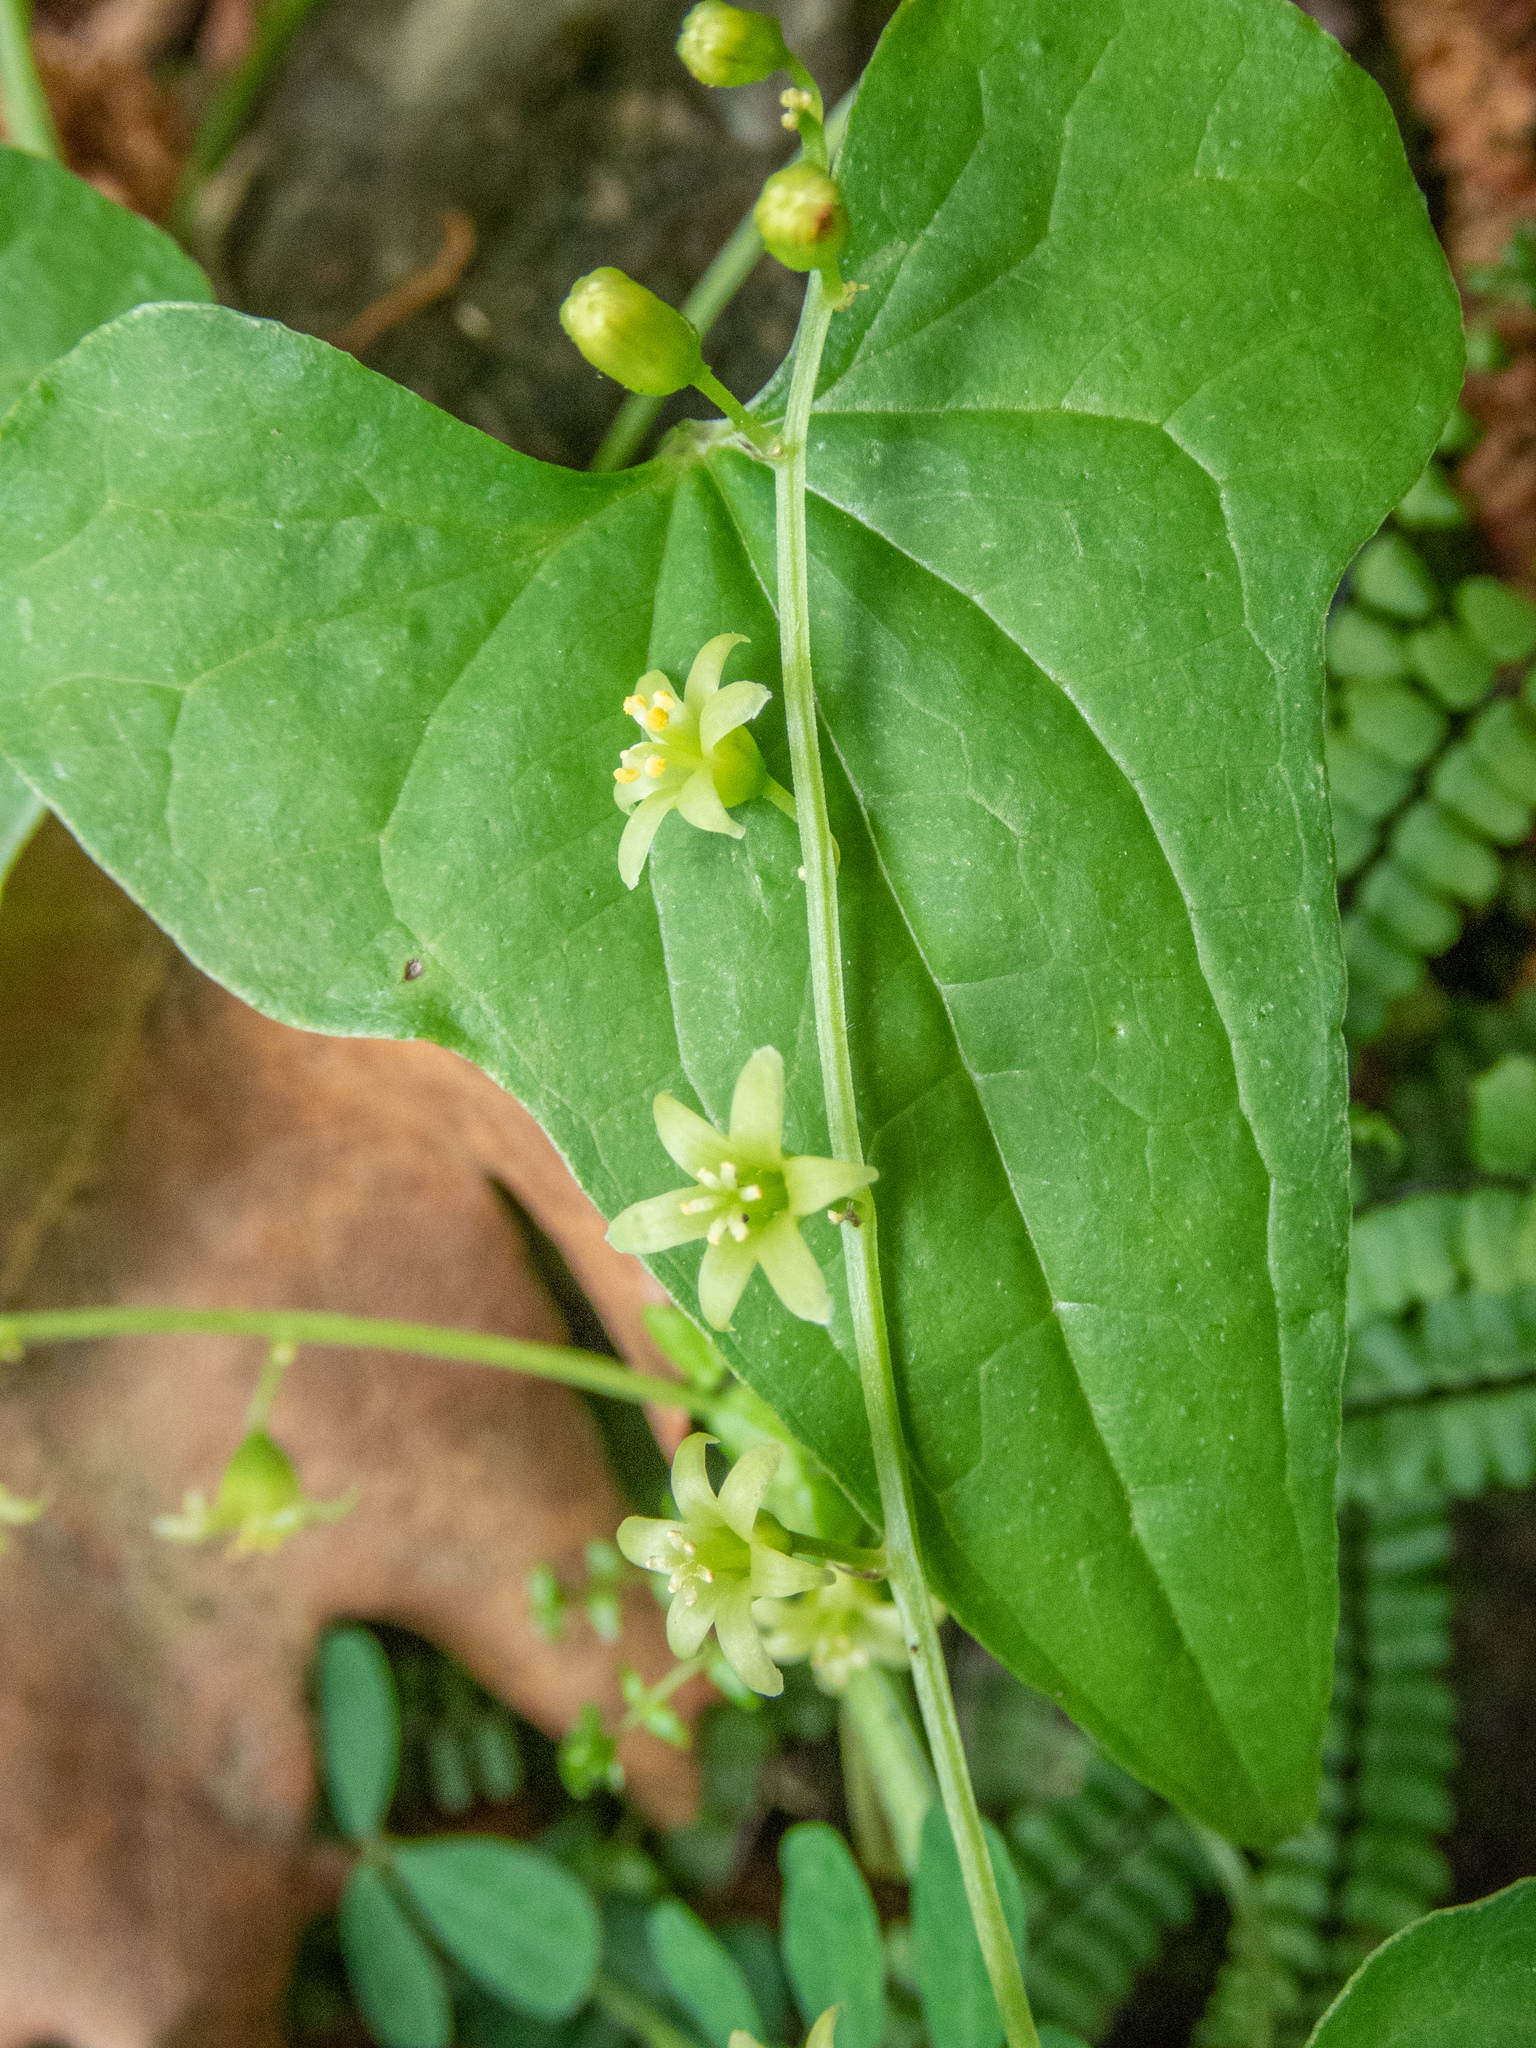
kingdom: Plantae
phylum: Tracheophyta
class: Liliopsida
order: Dioscoreales
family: Dioscoreaceae
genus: Dioscorea
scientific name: Dioscorea communis
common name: Black-bindweed
